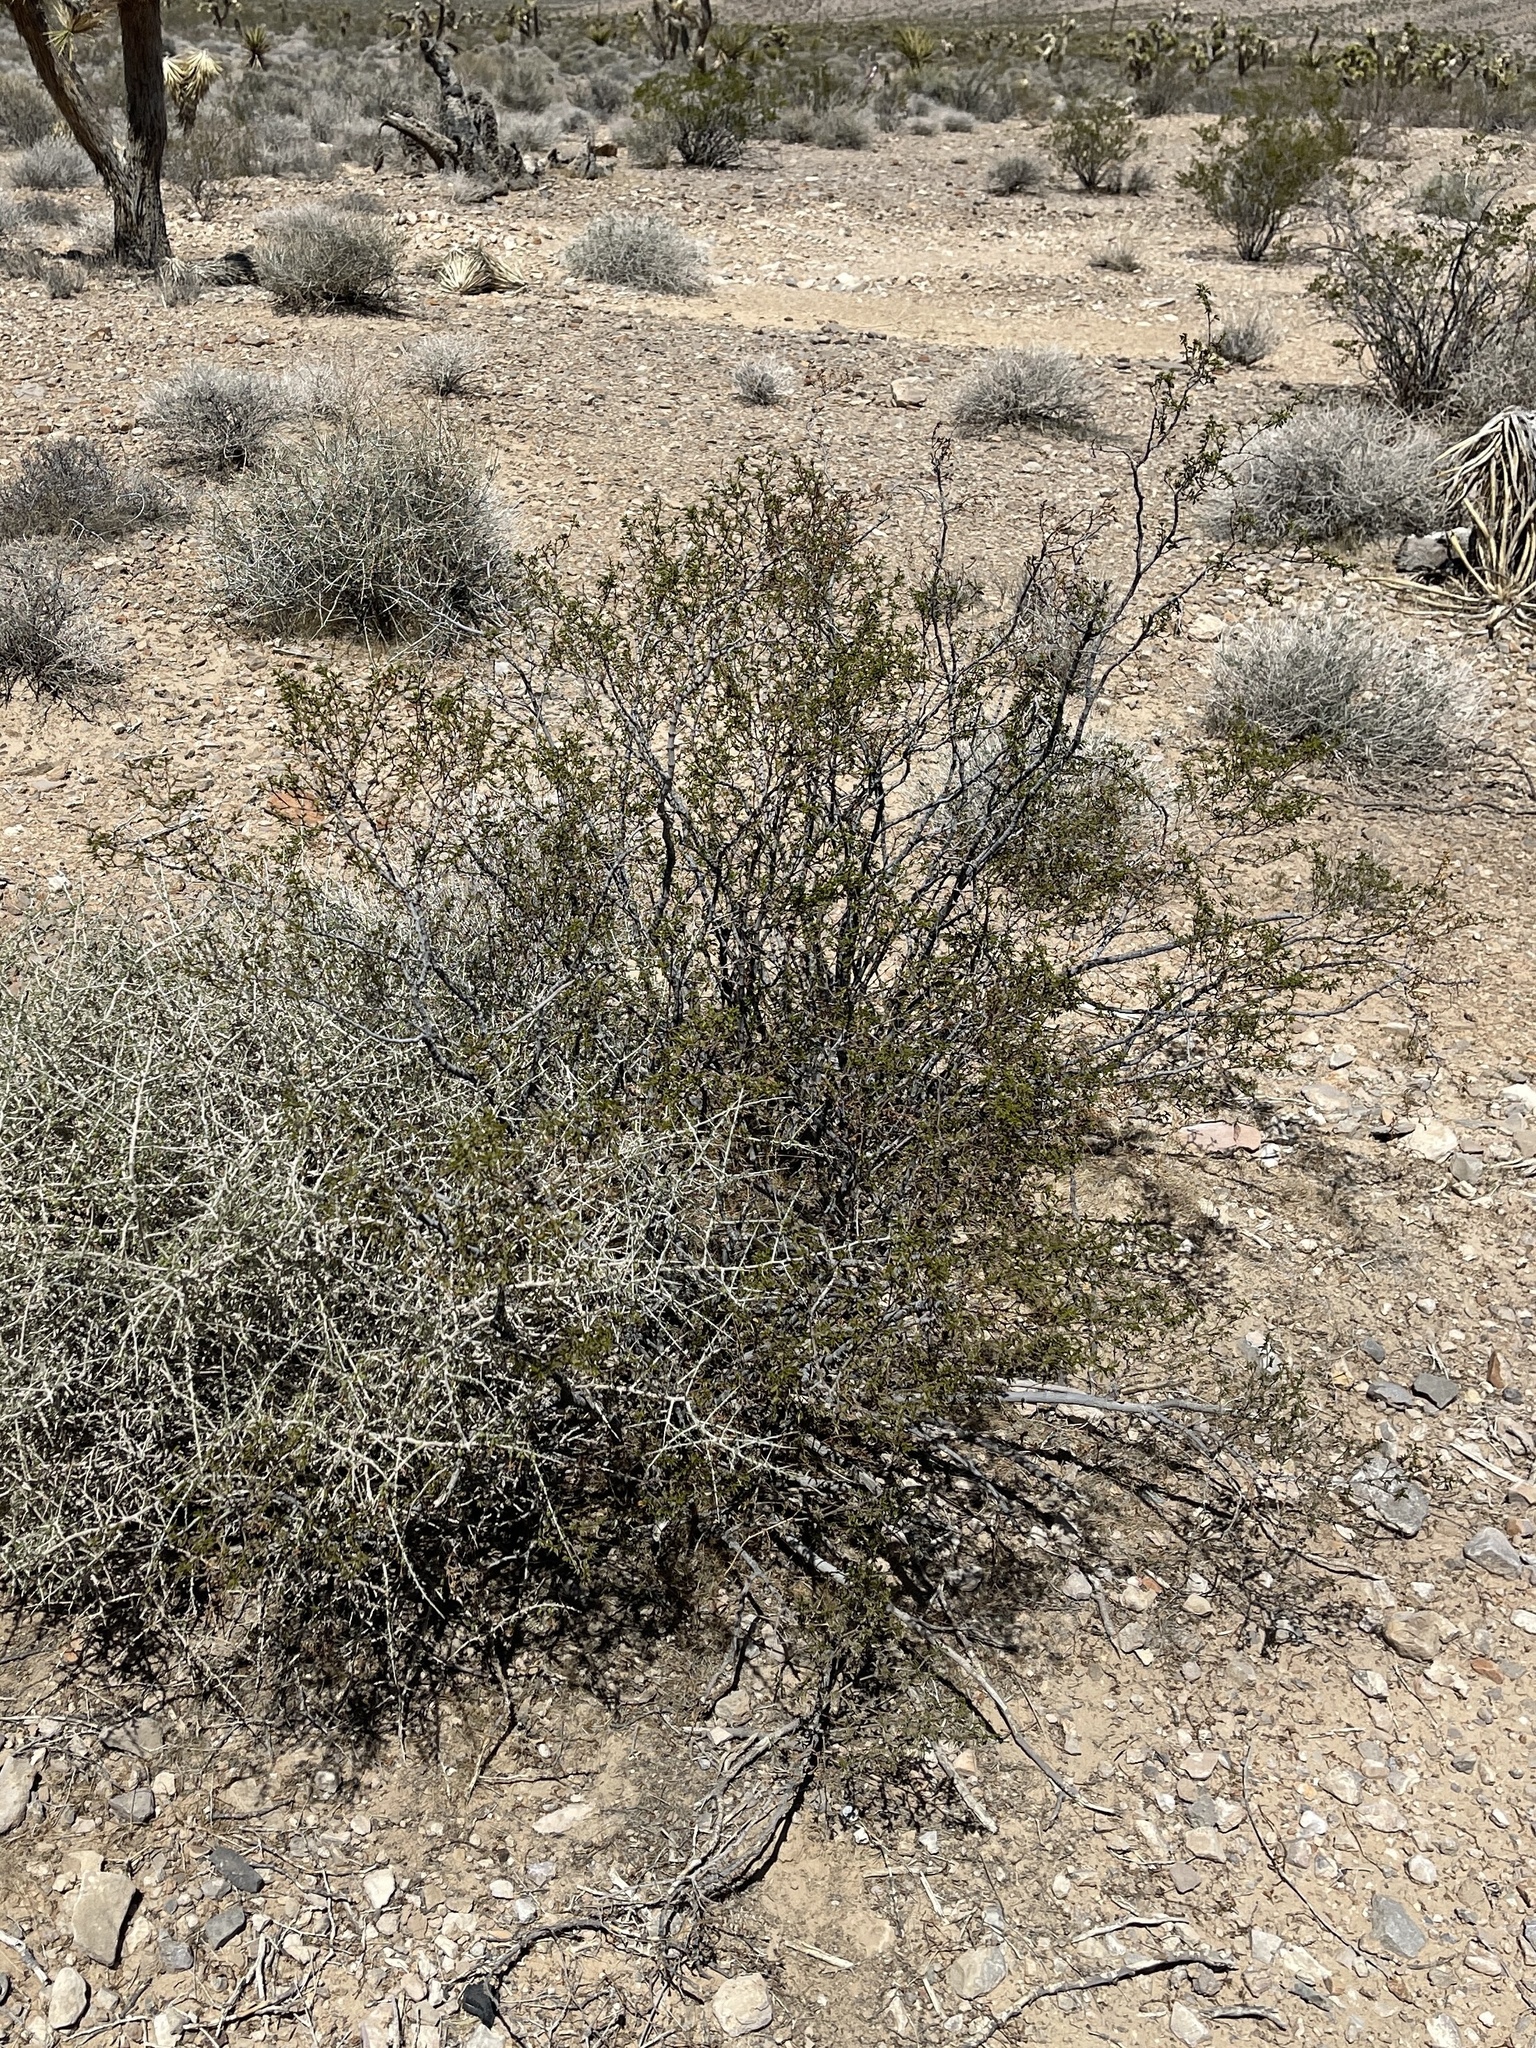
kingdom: Plantae
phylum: Tracheophyta
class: Magnoliopsida
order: Zygophyllales
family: Zygophyllaceae
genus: Larrea
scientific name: Larrea tridentata
